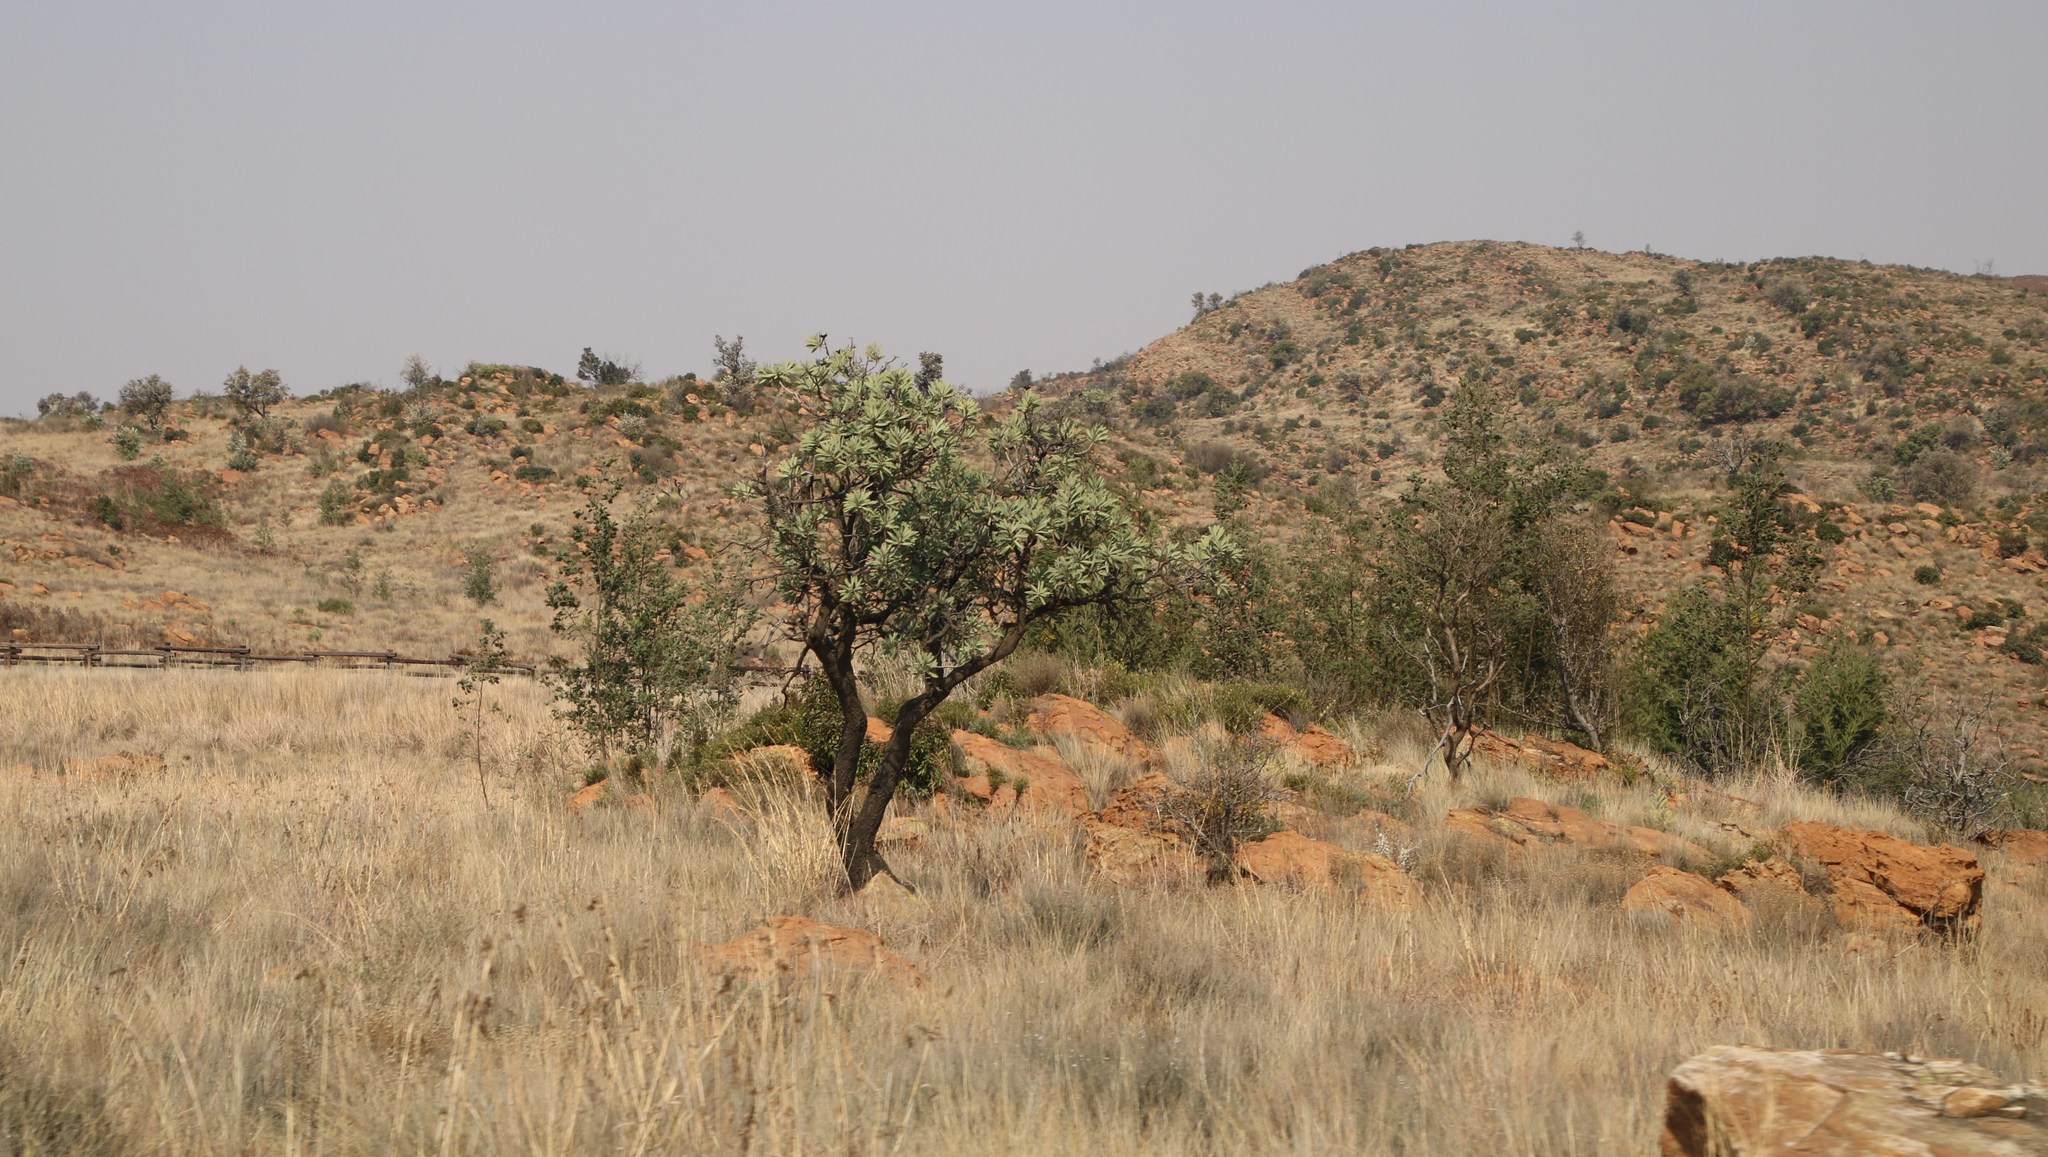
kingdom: Plantae
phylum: Tracheophyta
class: Magnoliopsida
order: Proteales
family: Proteaceae
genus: Protea
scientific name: Protea caffra
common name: Common sugarbush
